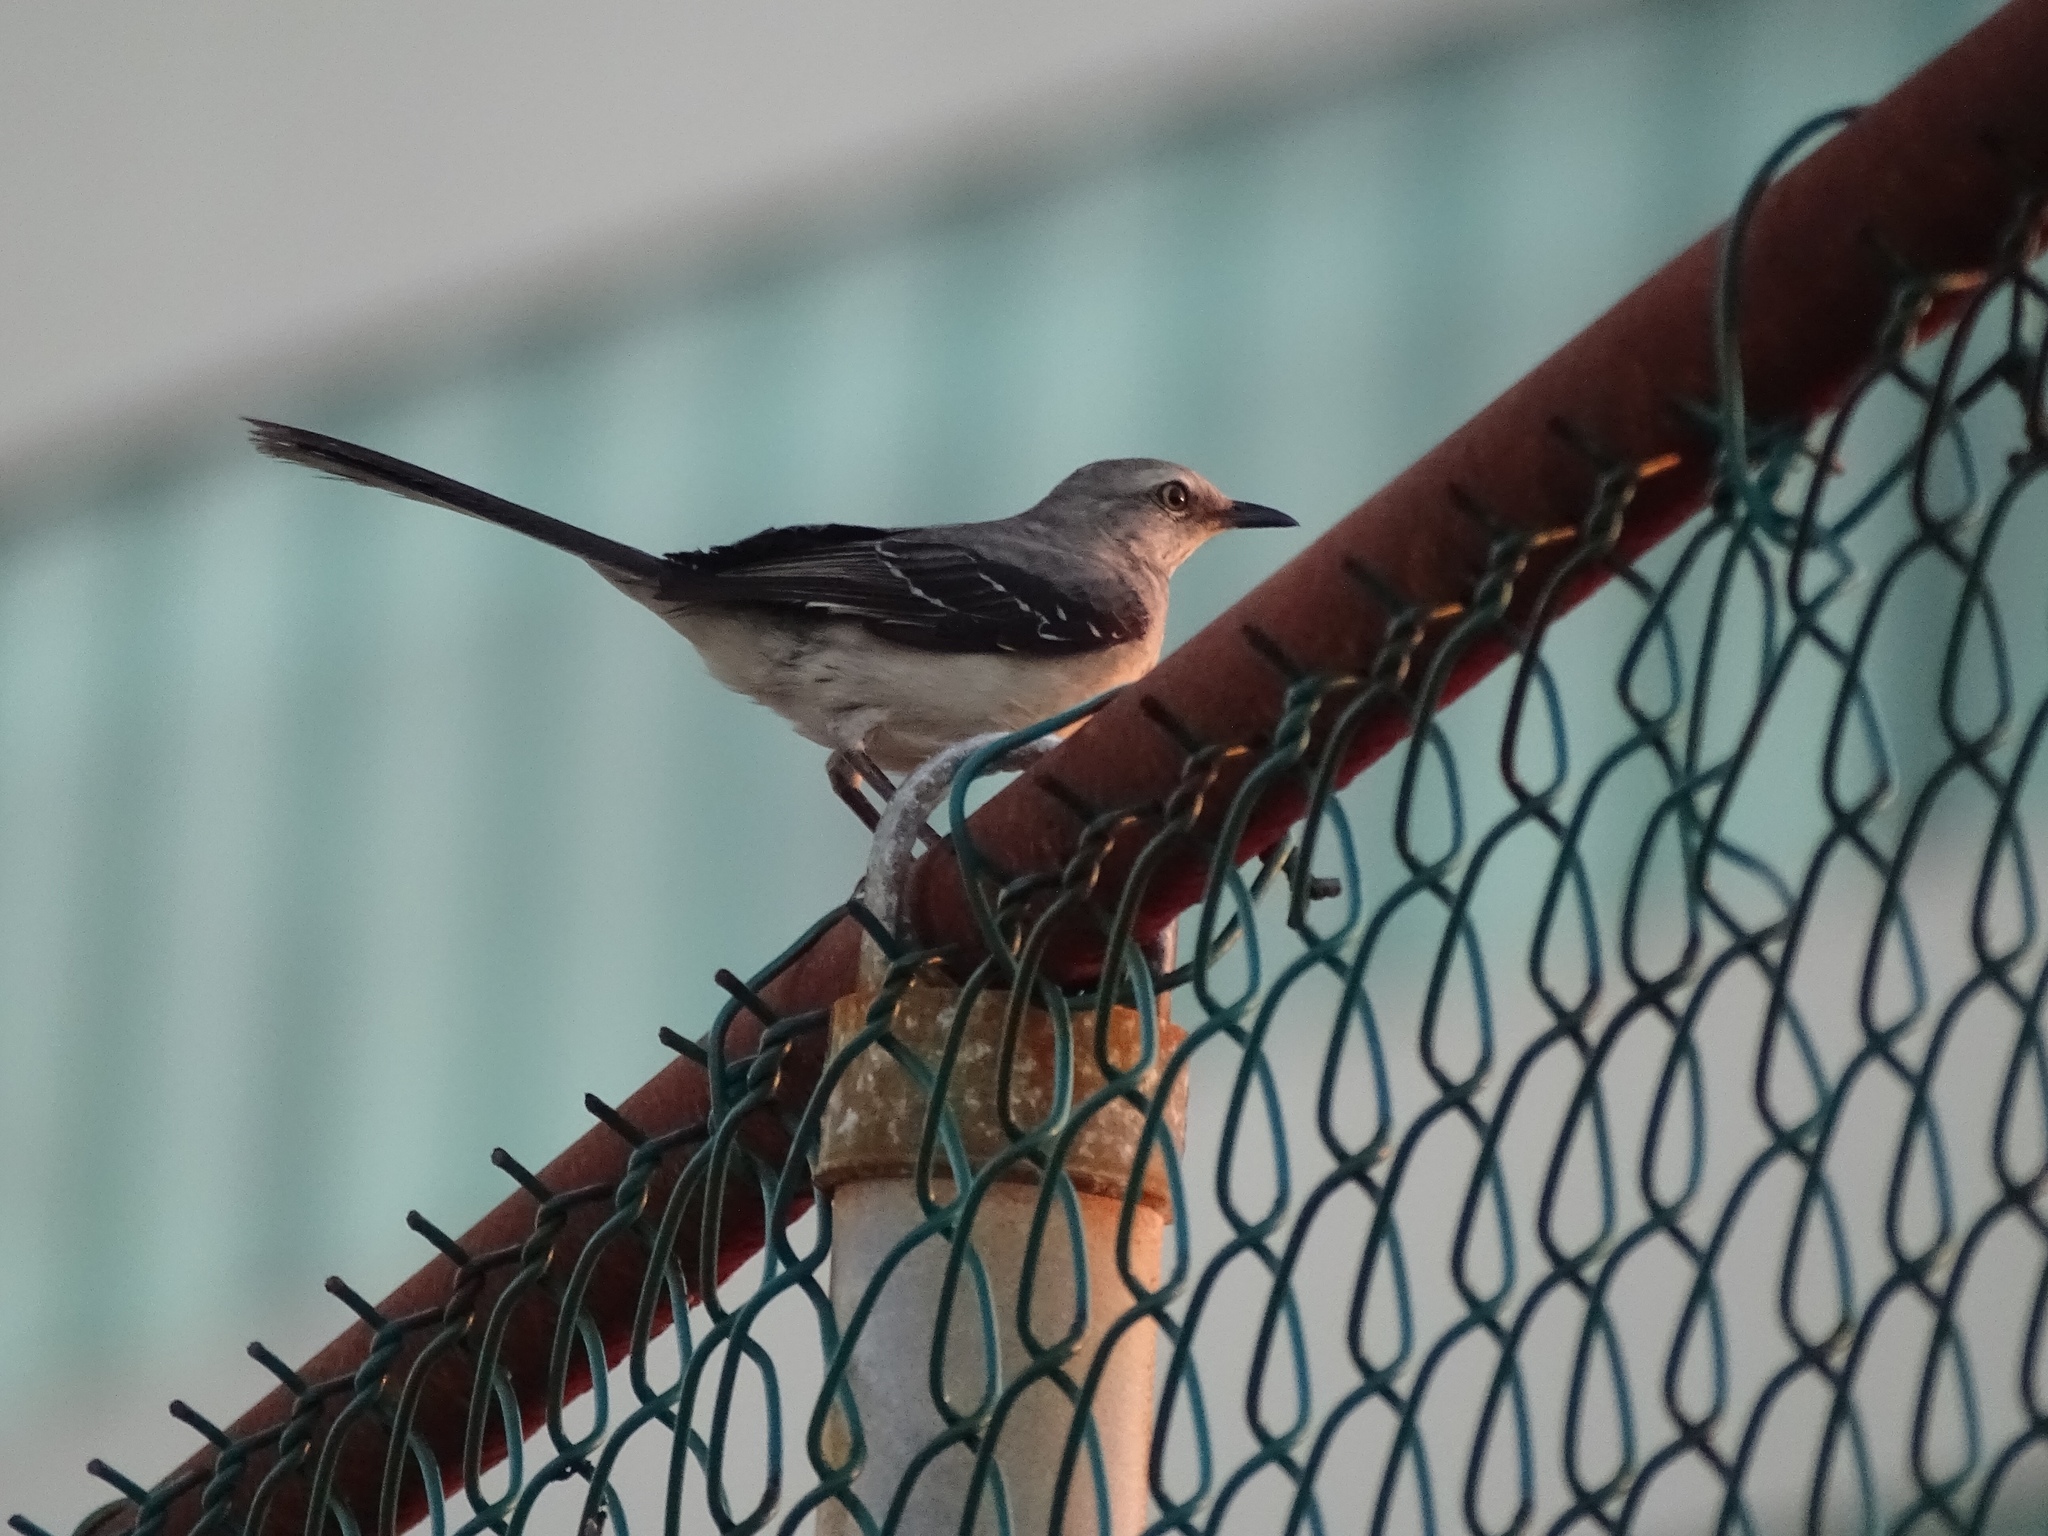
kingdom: Animalia
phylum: Chordata
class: Aves
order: Passeriformes
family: Mimidae
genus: Mimus
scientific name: Mimus gilvus
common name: Tropical mockingbird
